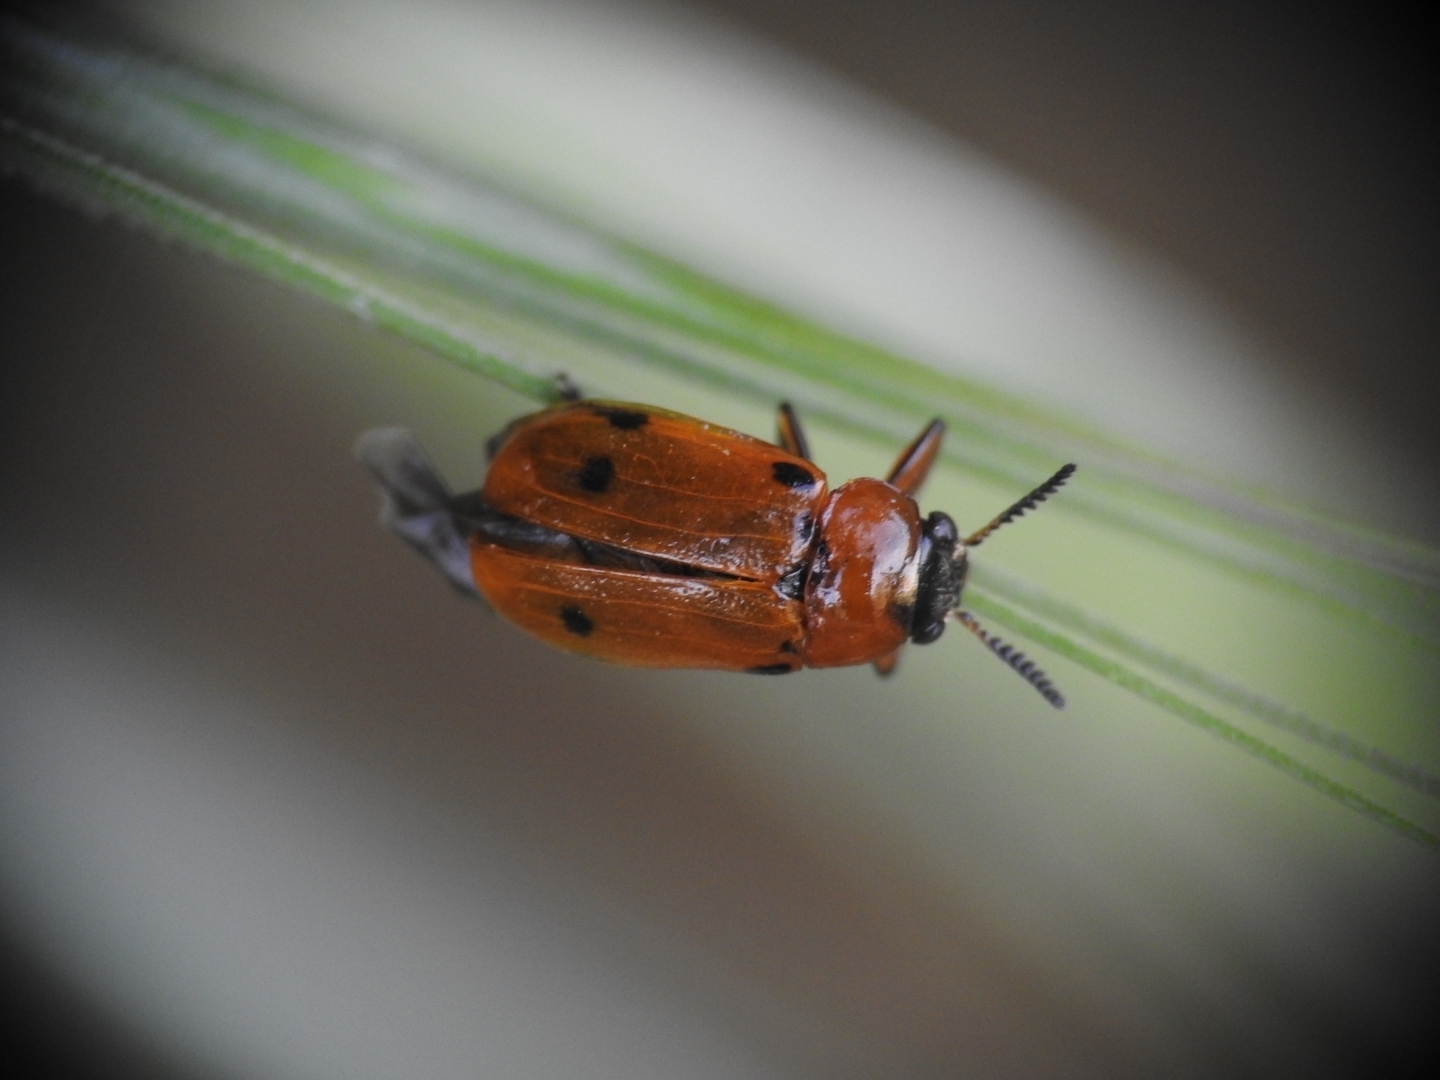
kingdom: Animalia
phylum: Arthropoda
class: Insecta
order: Coleoptera
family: Chrysomelidae
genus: Macrolenes
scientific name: Macrolenes dentipes
